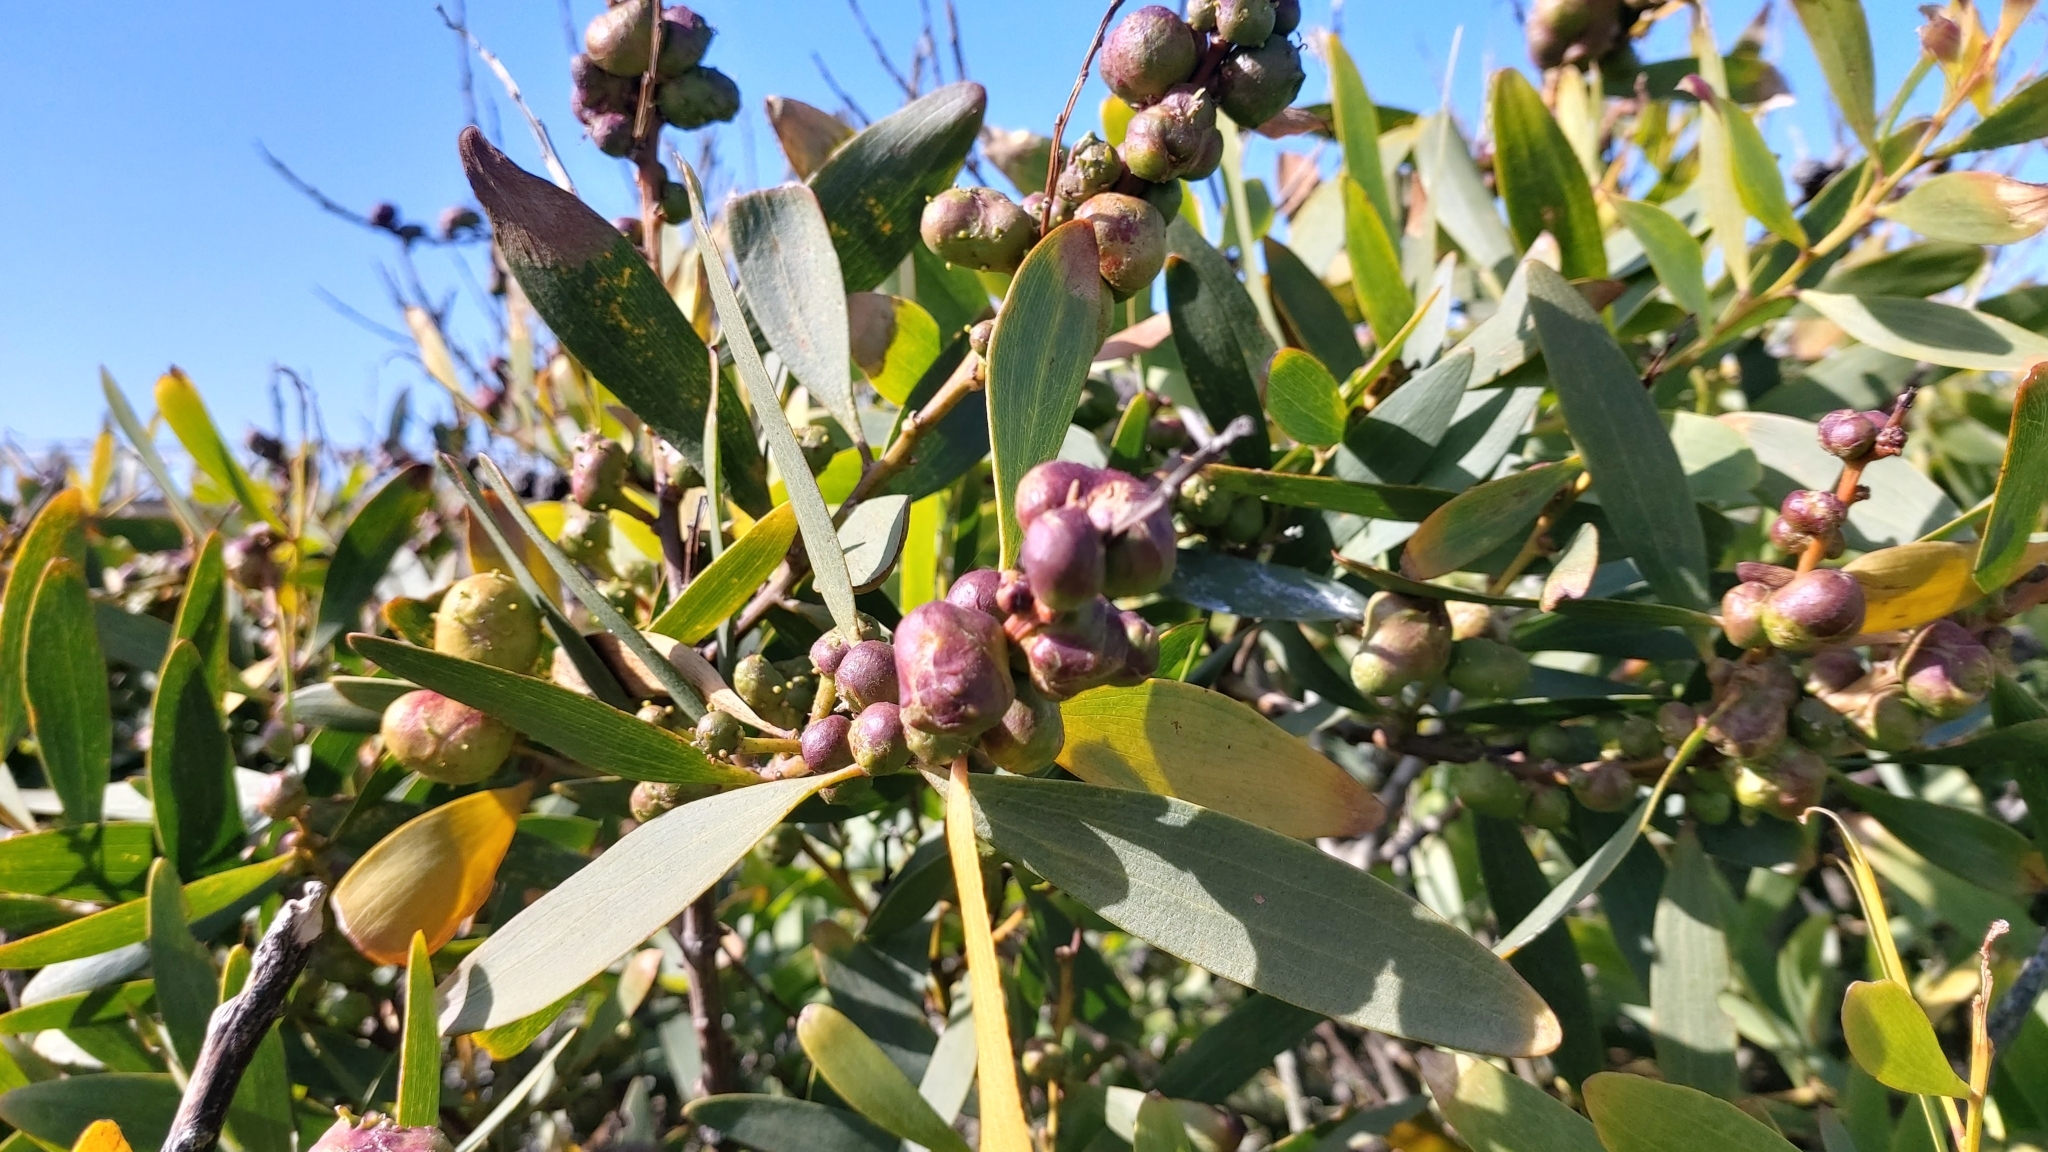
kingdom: Animalia
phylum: Arthropoda
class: Insecta
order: Hymenoptera
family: Pteromalidae
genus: Trichilogaster
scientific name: Trichilogaster acaciaelongifoliae
